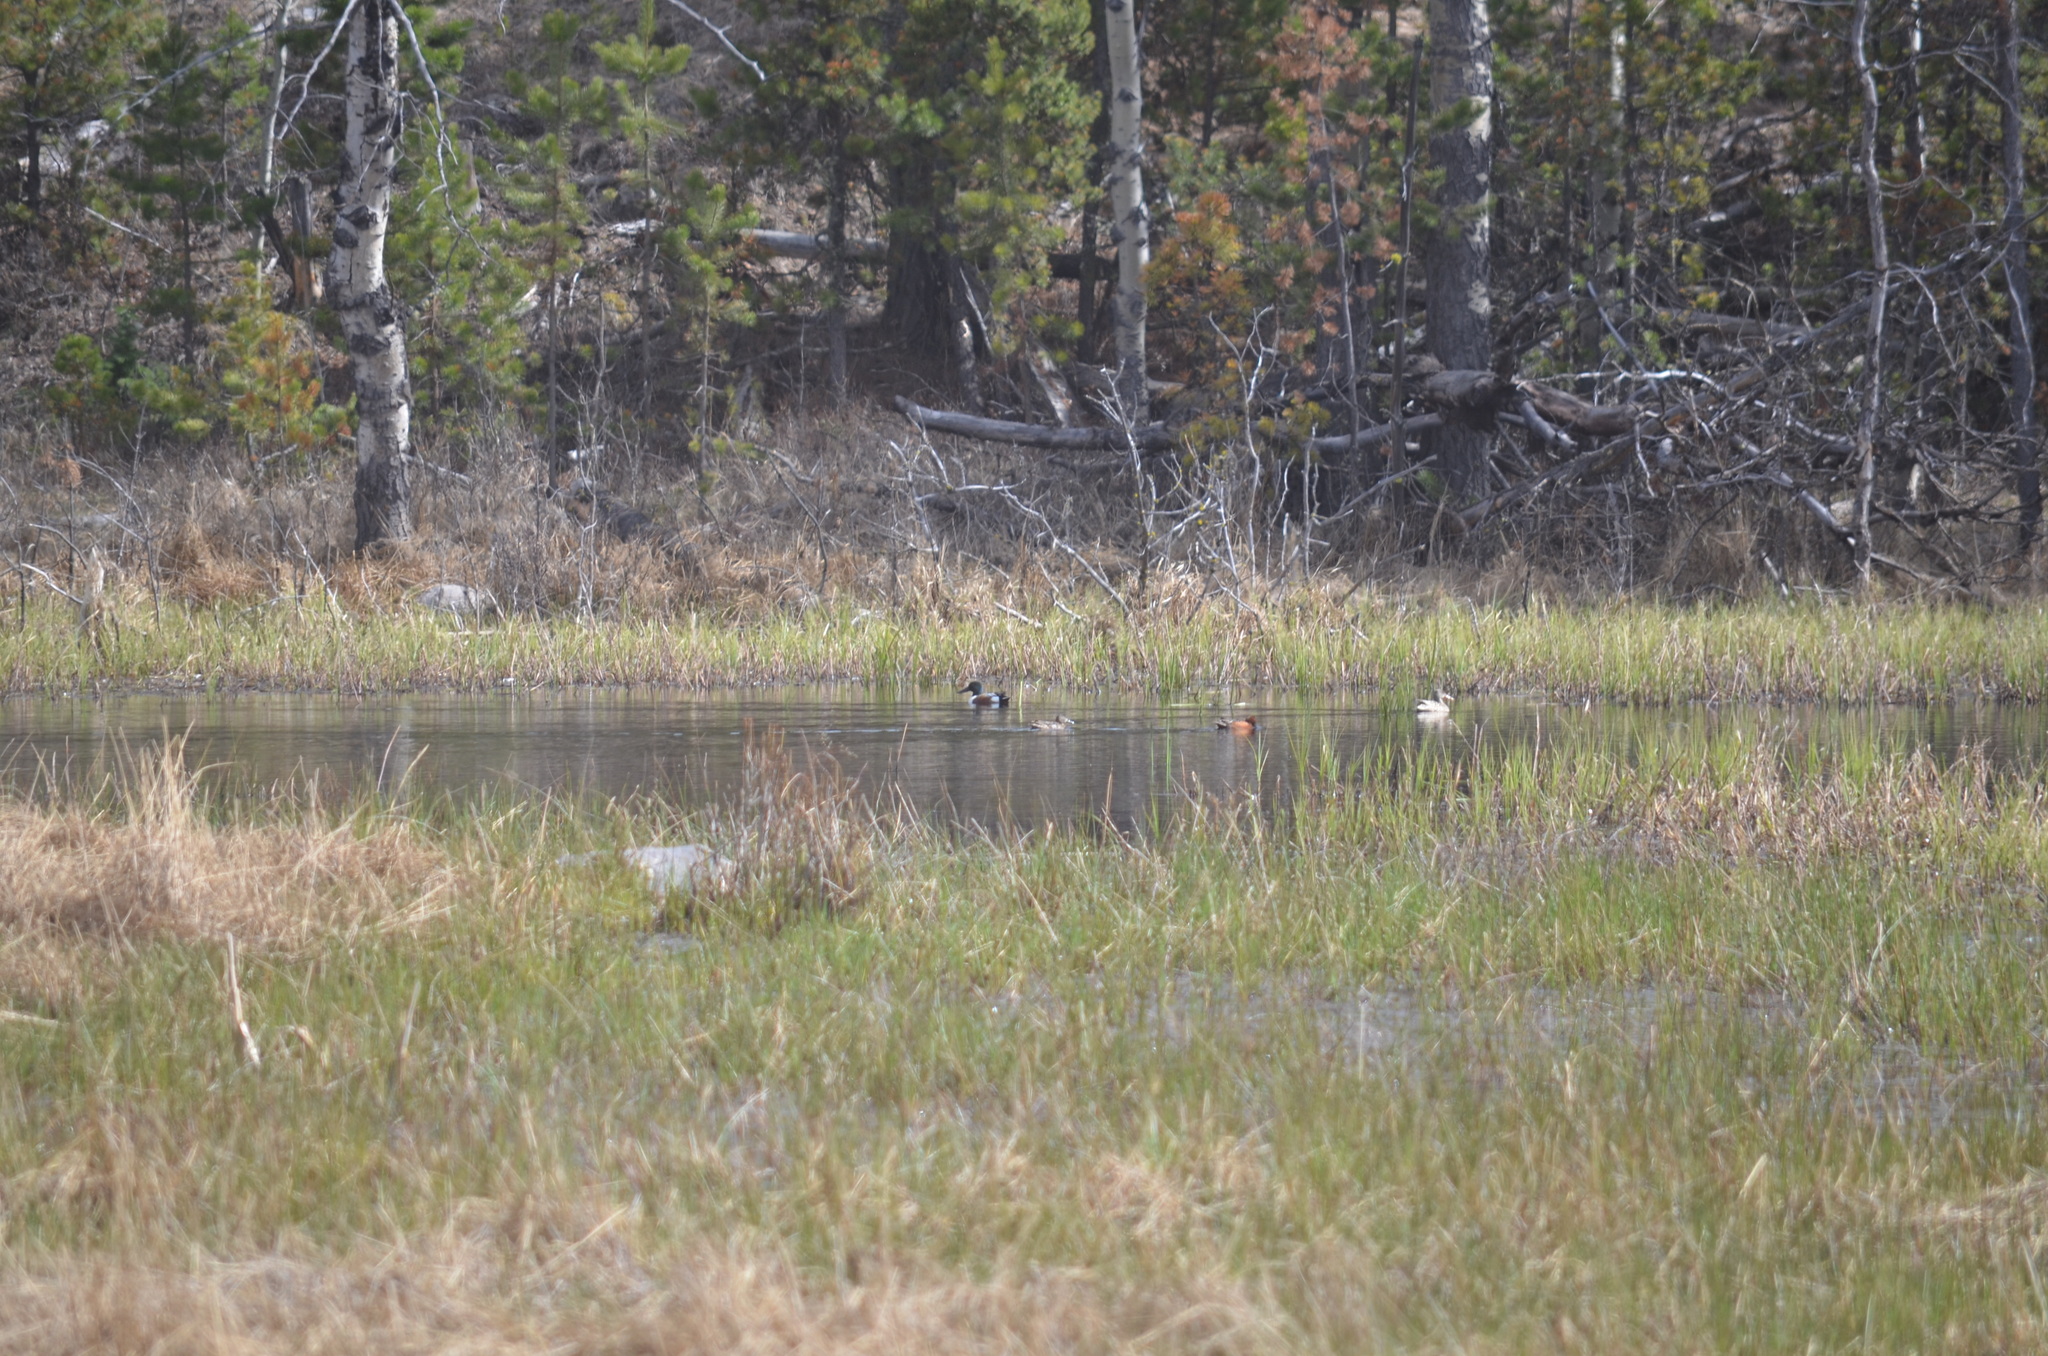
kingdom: Animalia
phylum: Chordata
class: Aves
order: Anseriformes
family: Anatidae
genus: Spatula
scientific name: Spatula clypeata
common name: Northern shoveler
